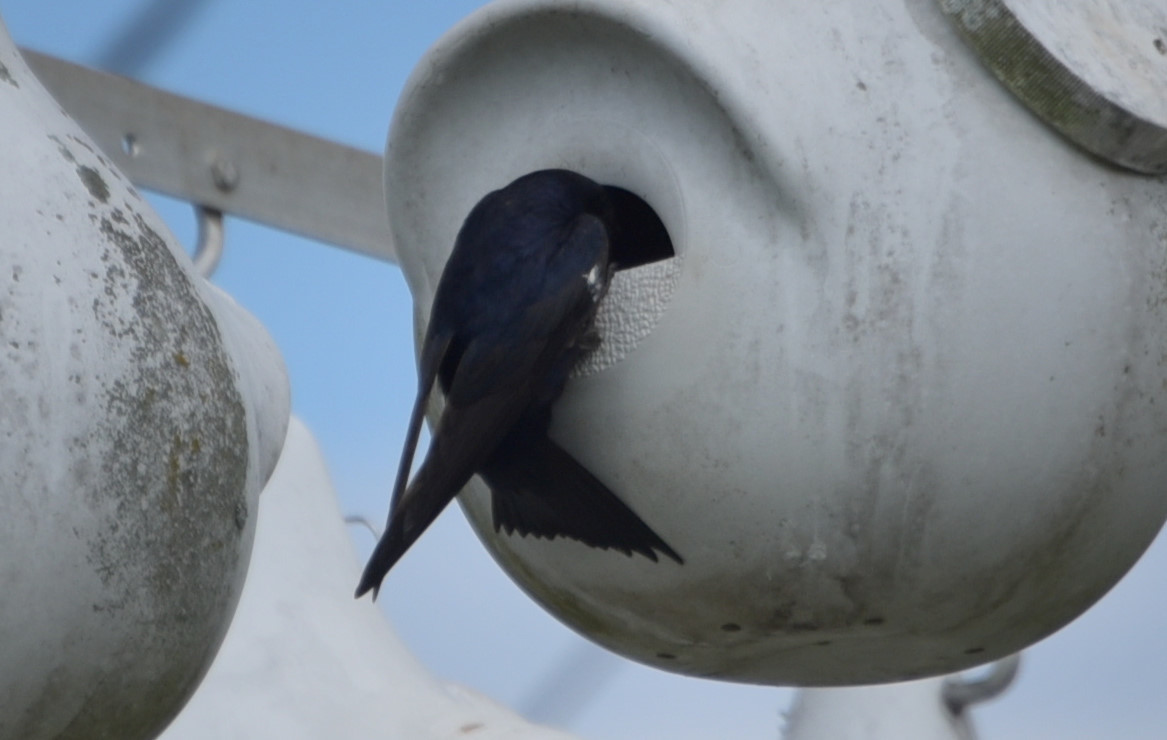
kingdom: Animalia
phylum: Chordata
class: Aves
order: Passeriformes
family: Hirundinidae
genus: Progne
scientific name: Progne subis
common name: Purple martin
